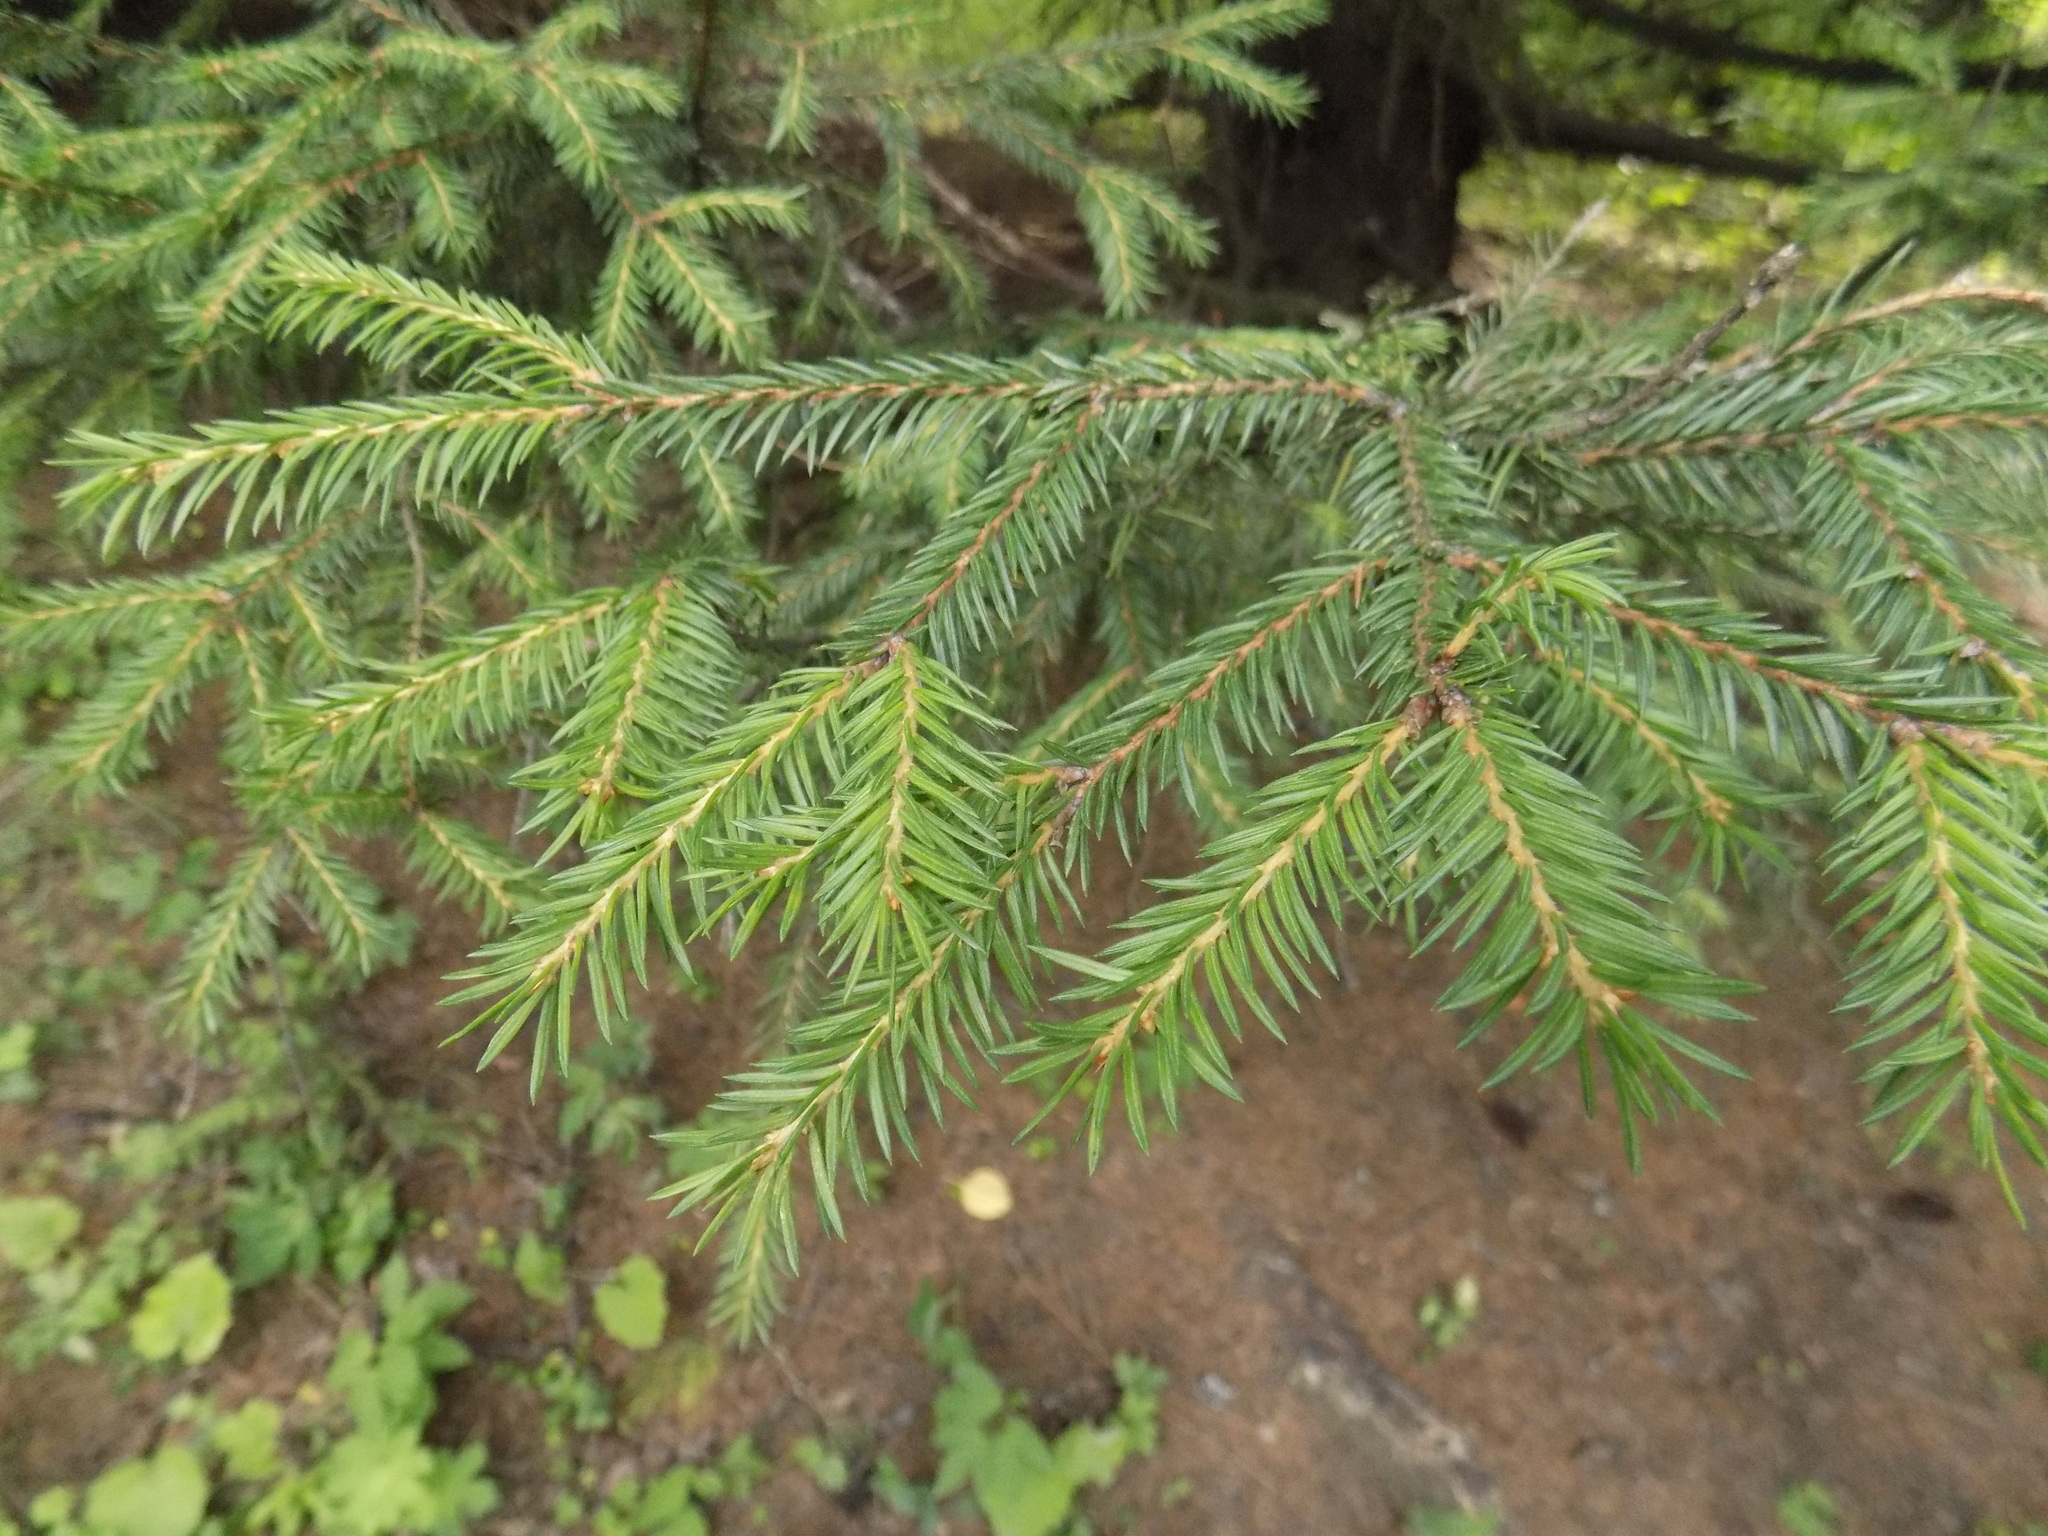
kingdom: Plantae
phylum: Tracheophyta
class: Pinopsida
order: Pinales
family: Pinaceae
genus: Picea
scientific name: Picea obovata
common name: Siberian spruce
